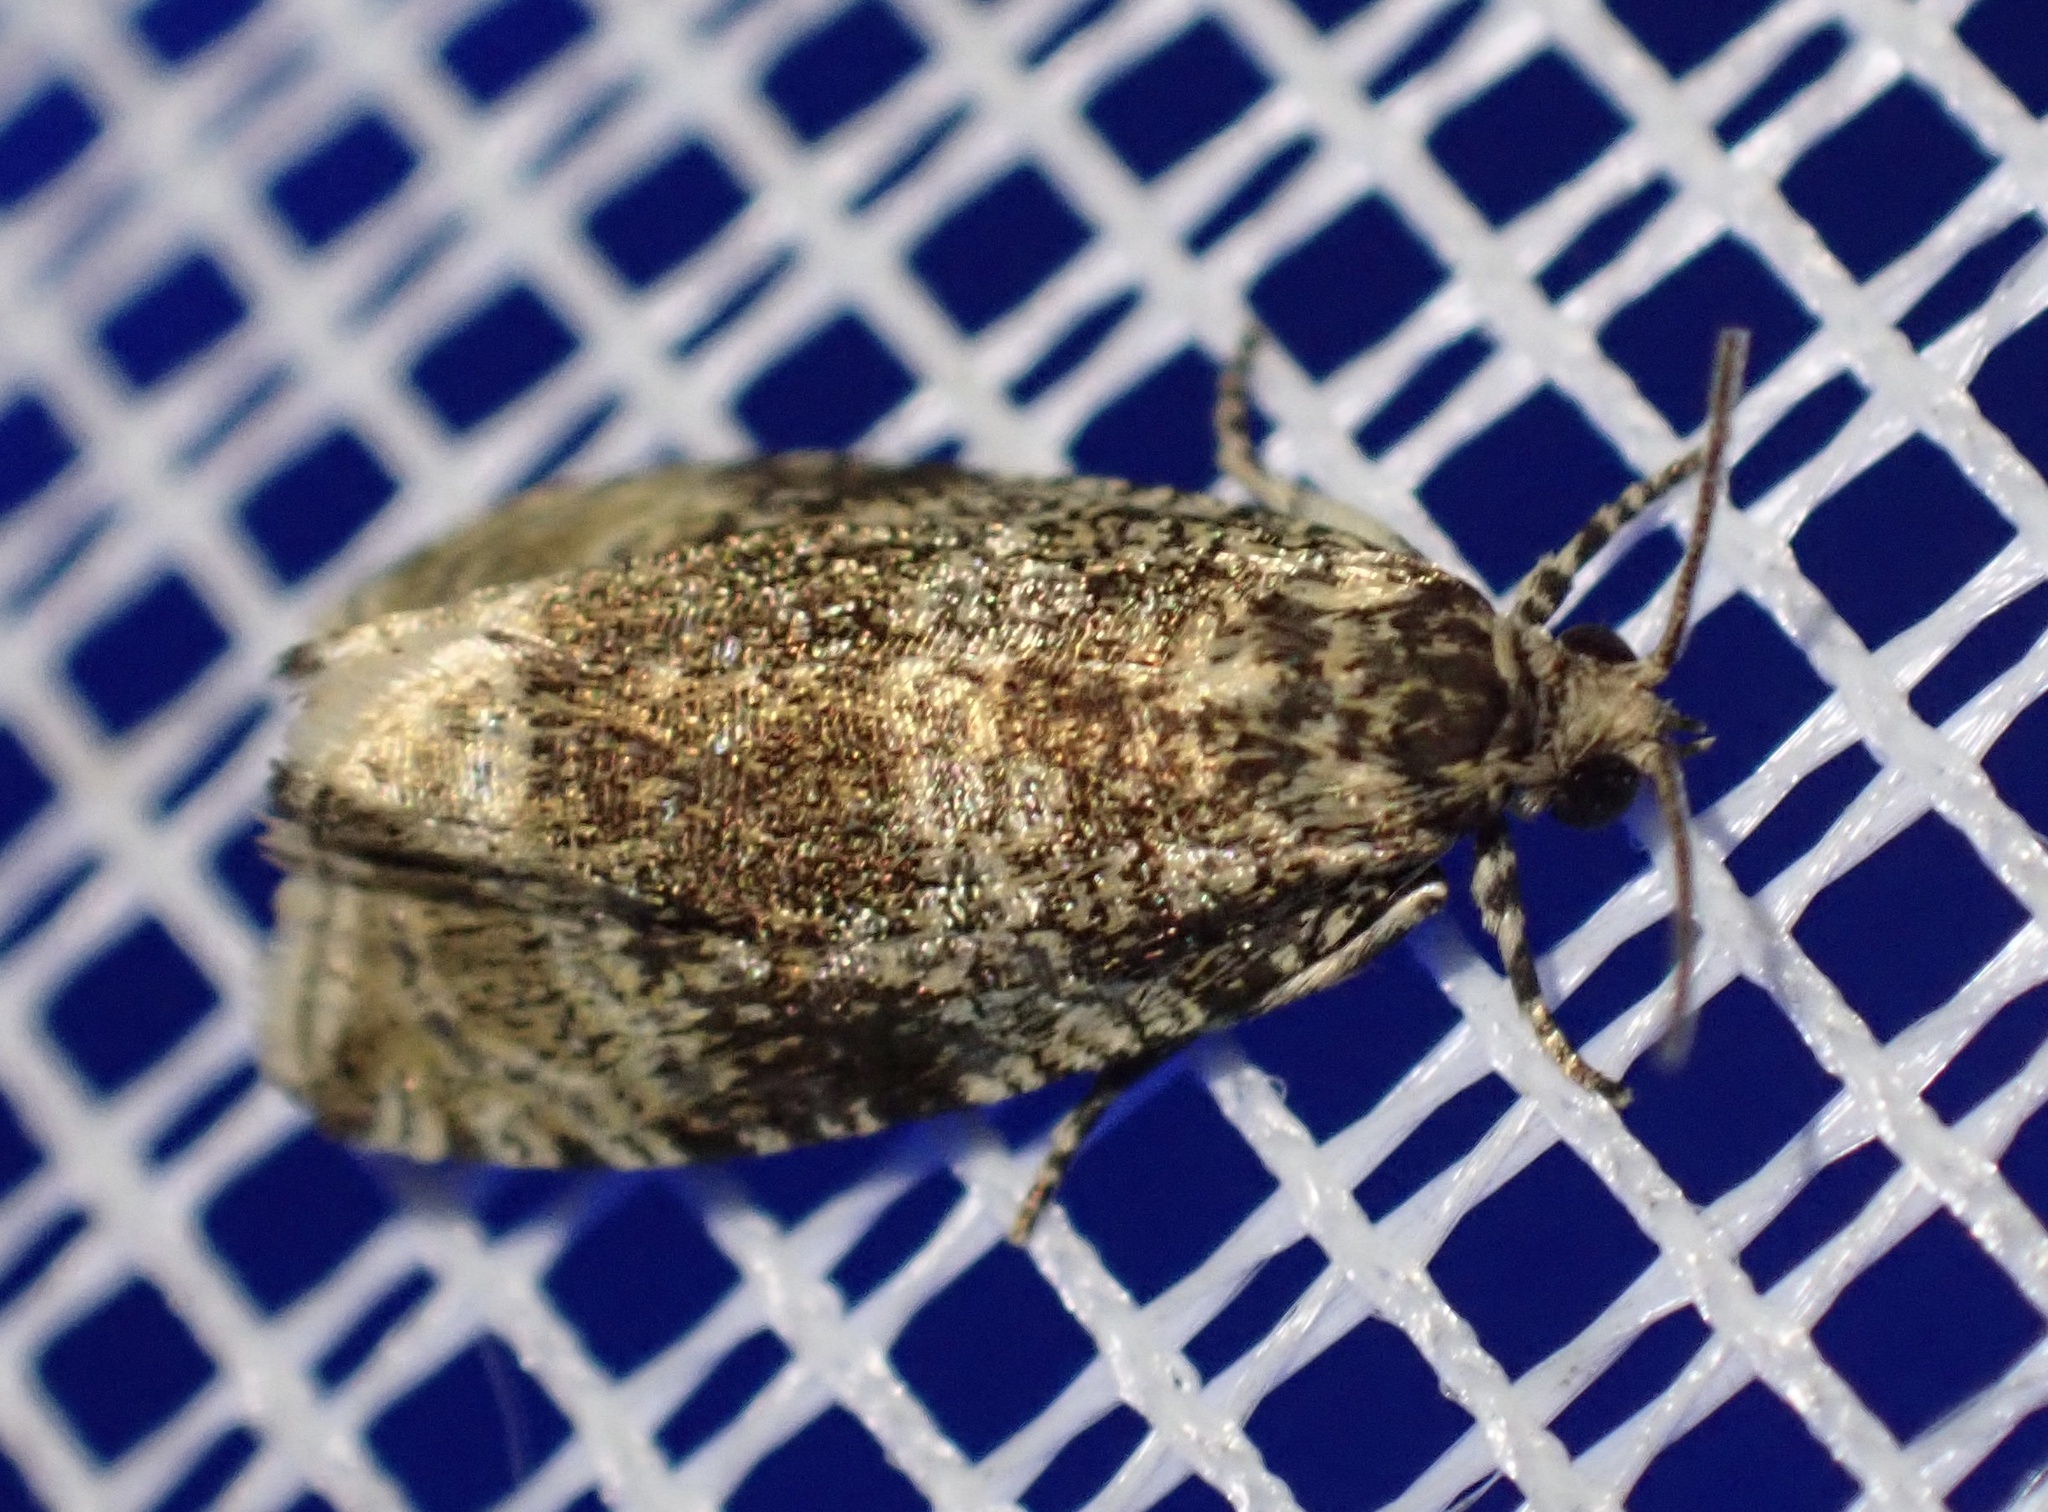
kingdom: Animalia
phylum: Arthropoda
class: Insecta
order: Lepidoptera
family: Tortricidae
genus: Syricoris
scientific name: Syricoris lacunana
